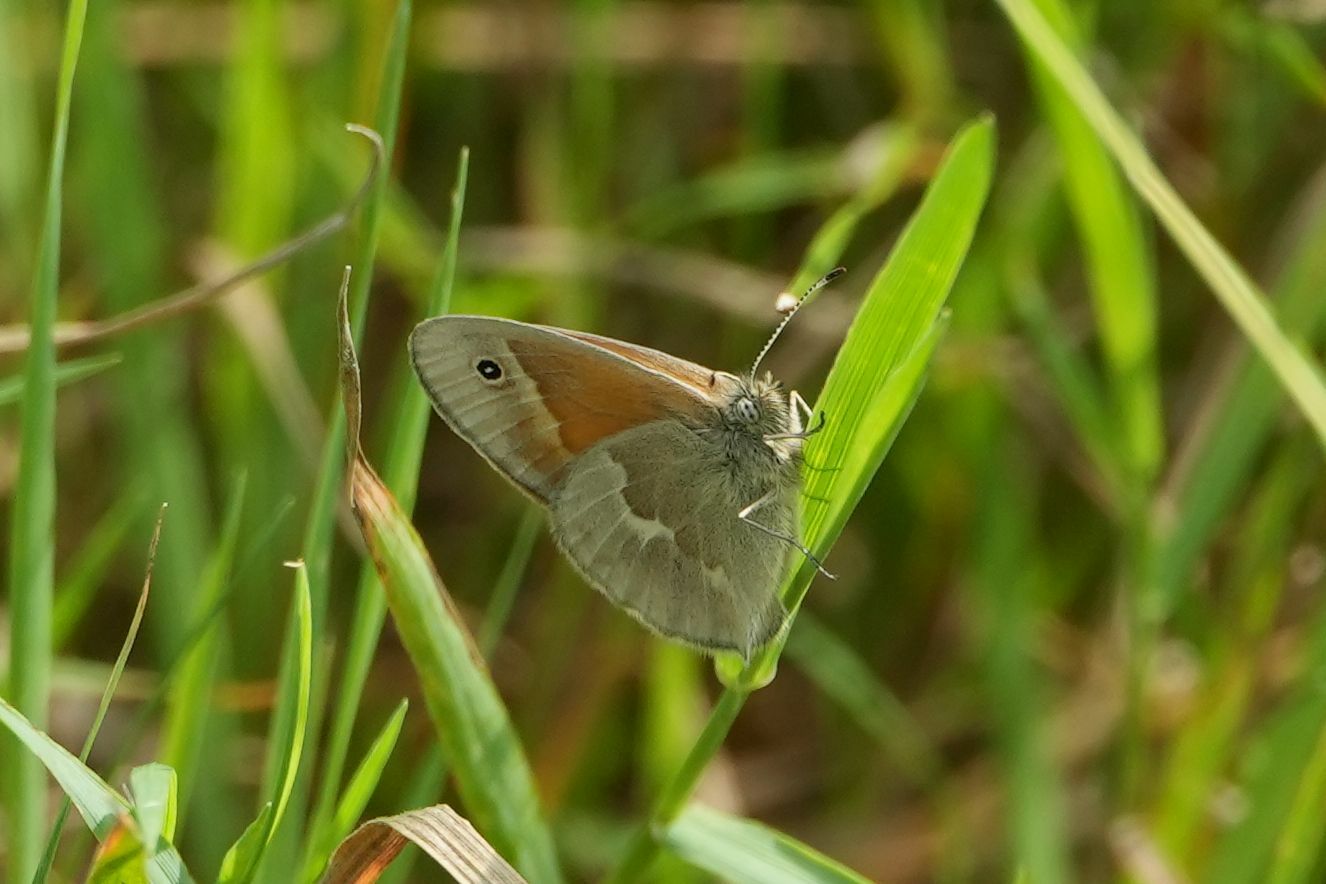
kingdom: Animalia
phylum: Arthropoda
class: Insecta
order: Lepidoptera
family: Nymphalidae
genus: Coenonympha
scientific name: Coenonympha california
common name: Common ringlet
